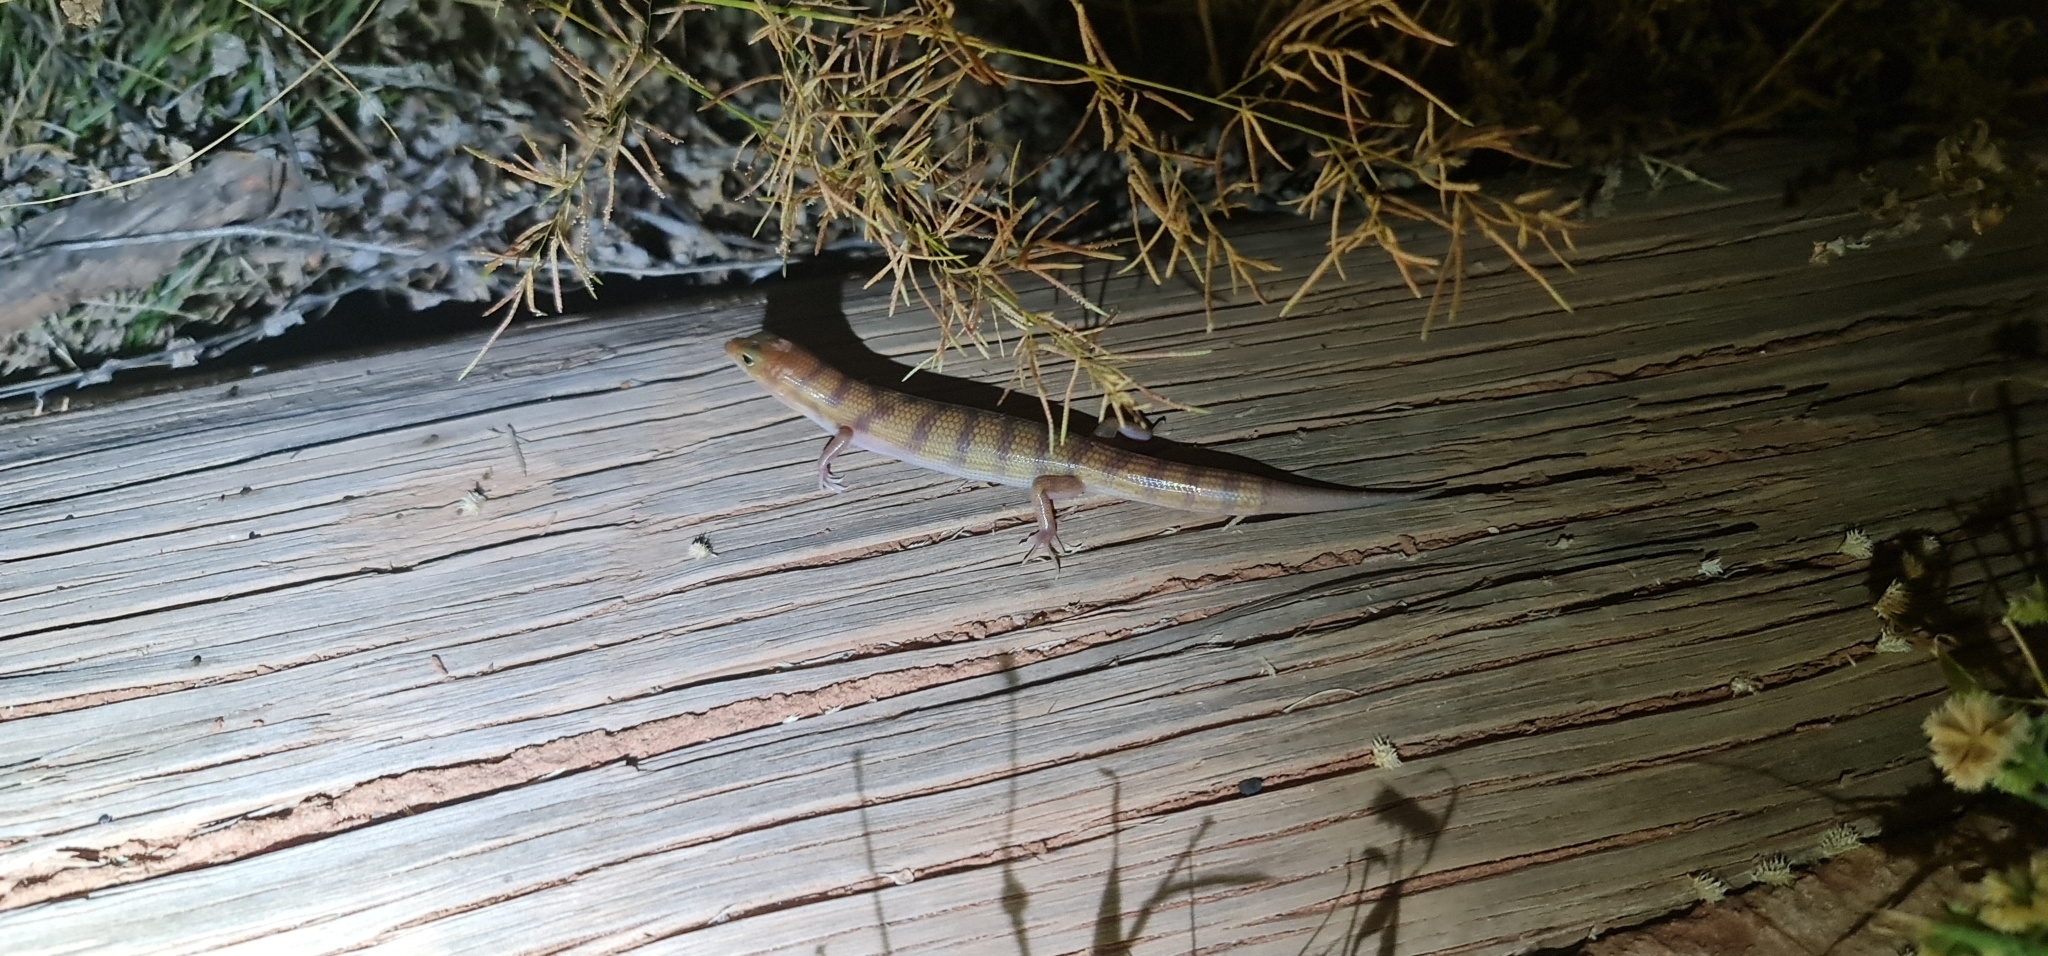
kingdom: Animalia
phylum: Chordata
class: Squamata
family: Scincidae
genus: Eremiascincus
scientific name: Eremiascincus richardsonii
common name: Broad banded sand swimmer
